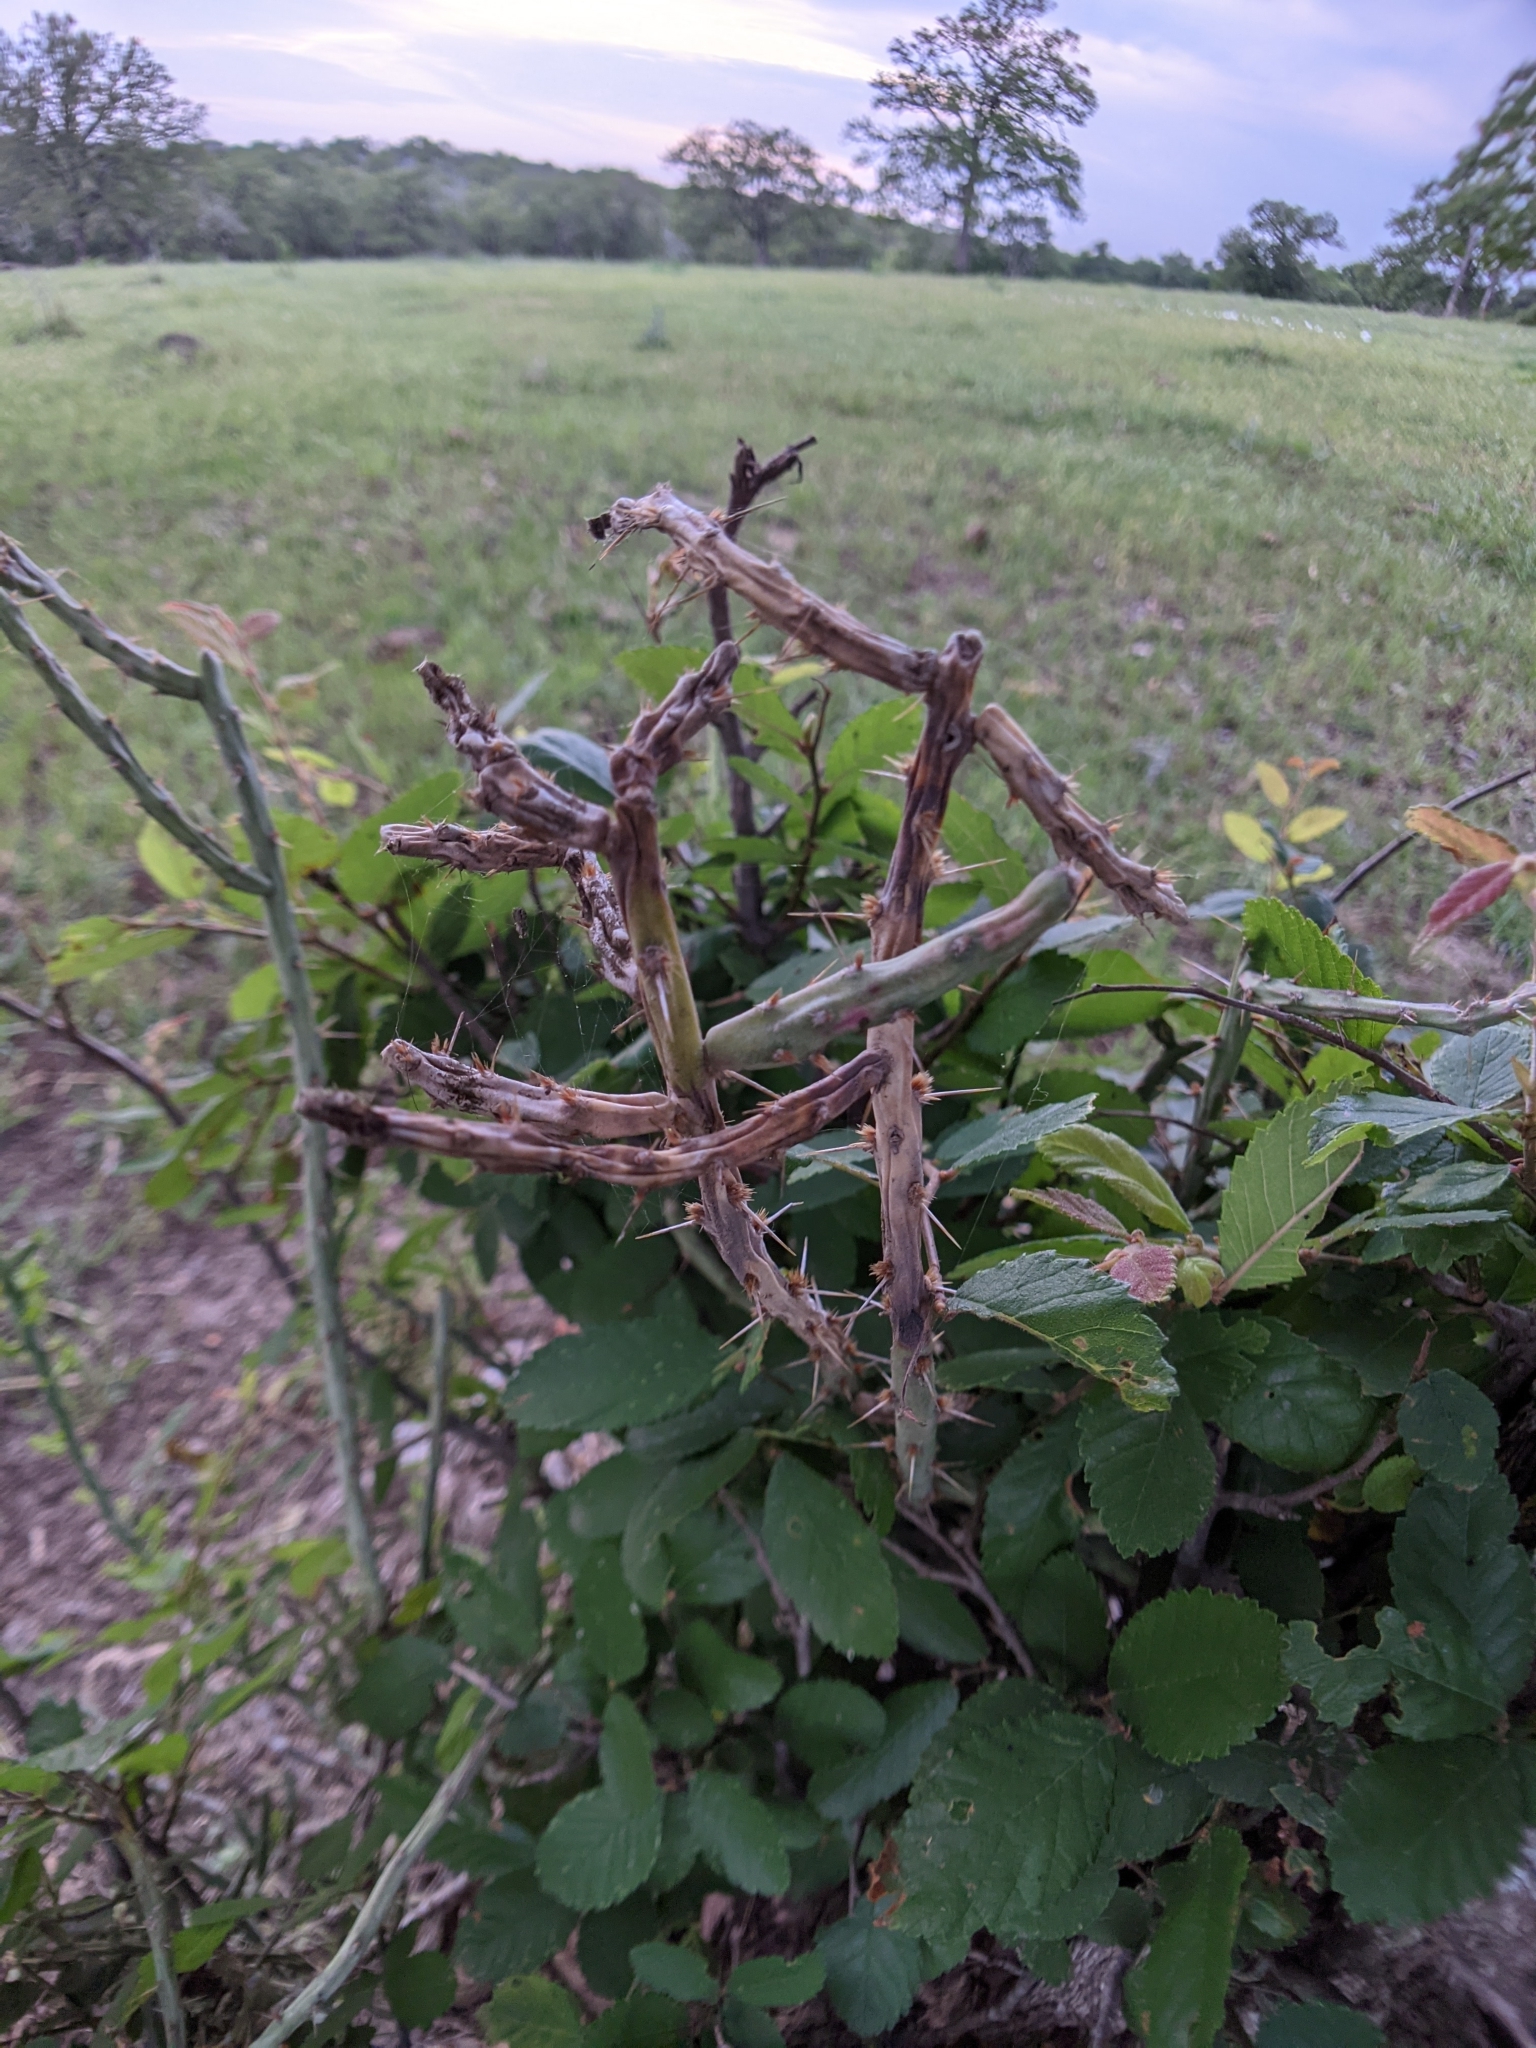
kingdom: Plantae
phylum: Tracheophyta
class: Magnoliopsida
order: Caryophyllales
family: Cactaceae
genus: Cylindropuntia
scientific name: Cylindropuntia leptocaulis
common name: Christmas cactus
